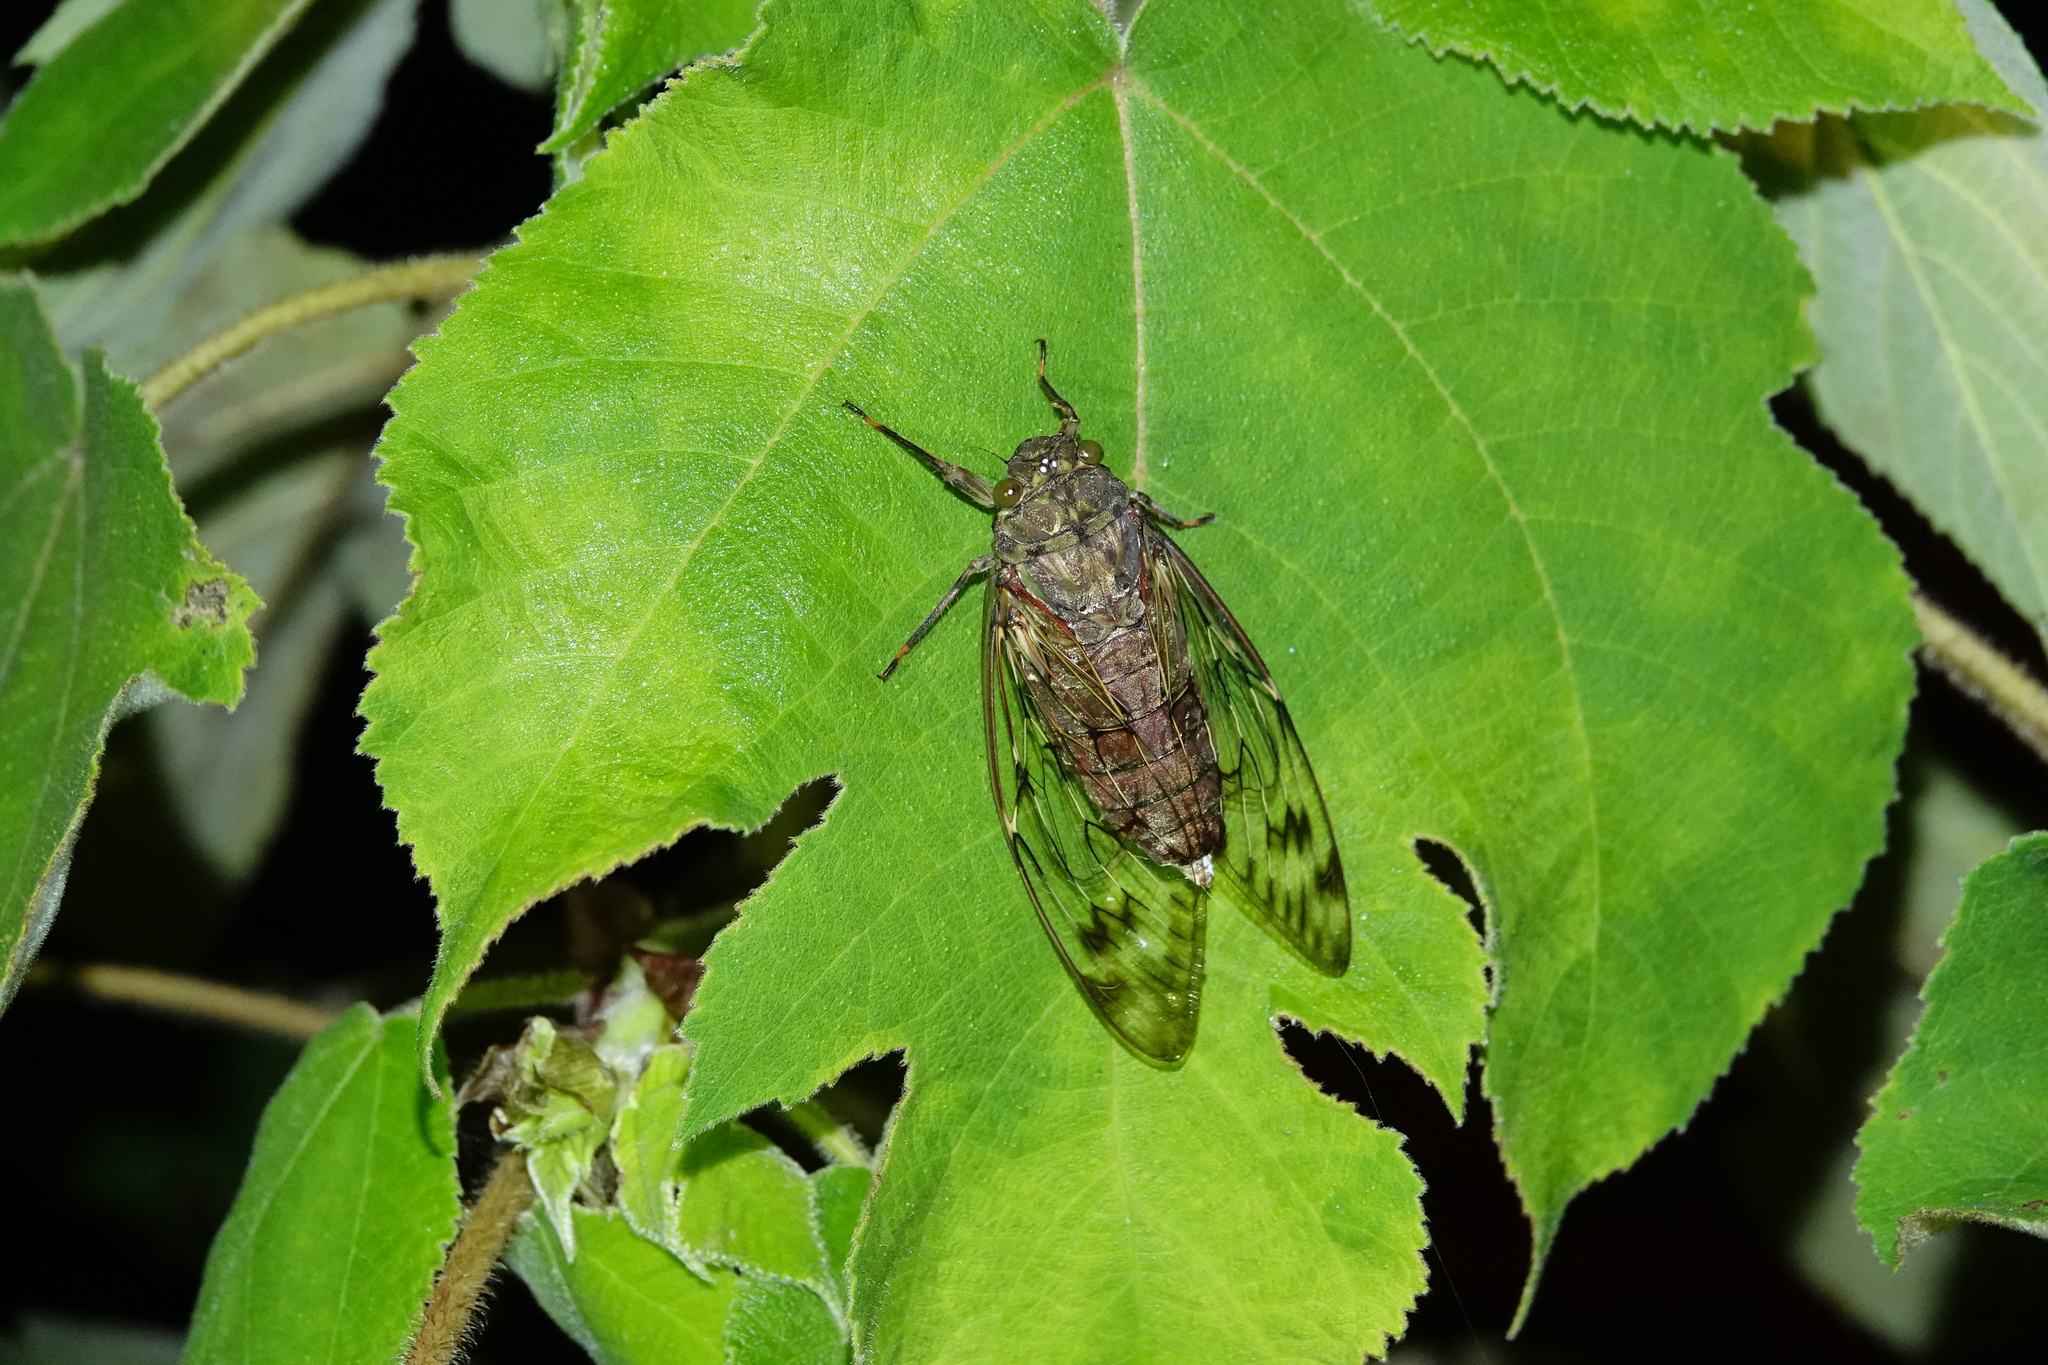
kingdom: Animalia
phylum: Arthropoda
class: Insecta
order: Hemiptera
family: Cicadidae
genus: Pomponia
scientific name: Pomponia yayeyamana
